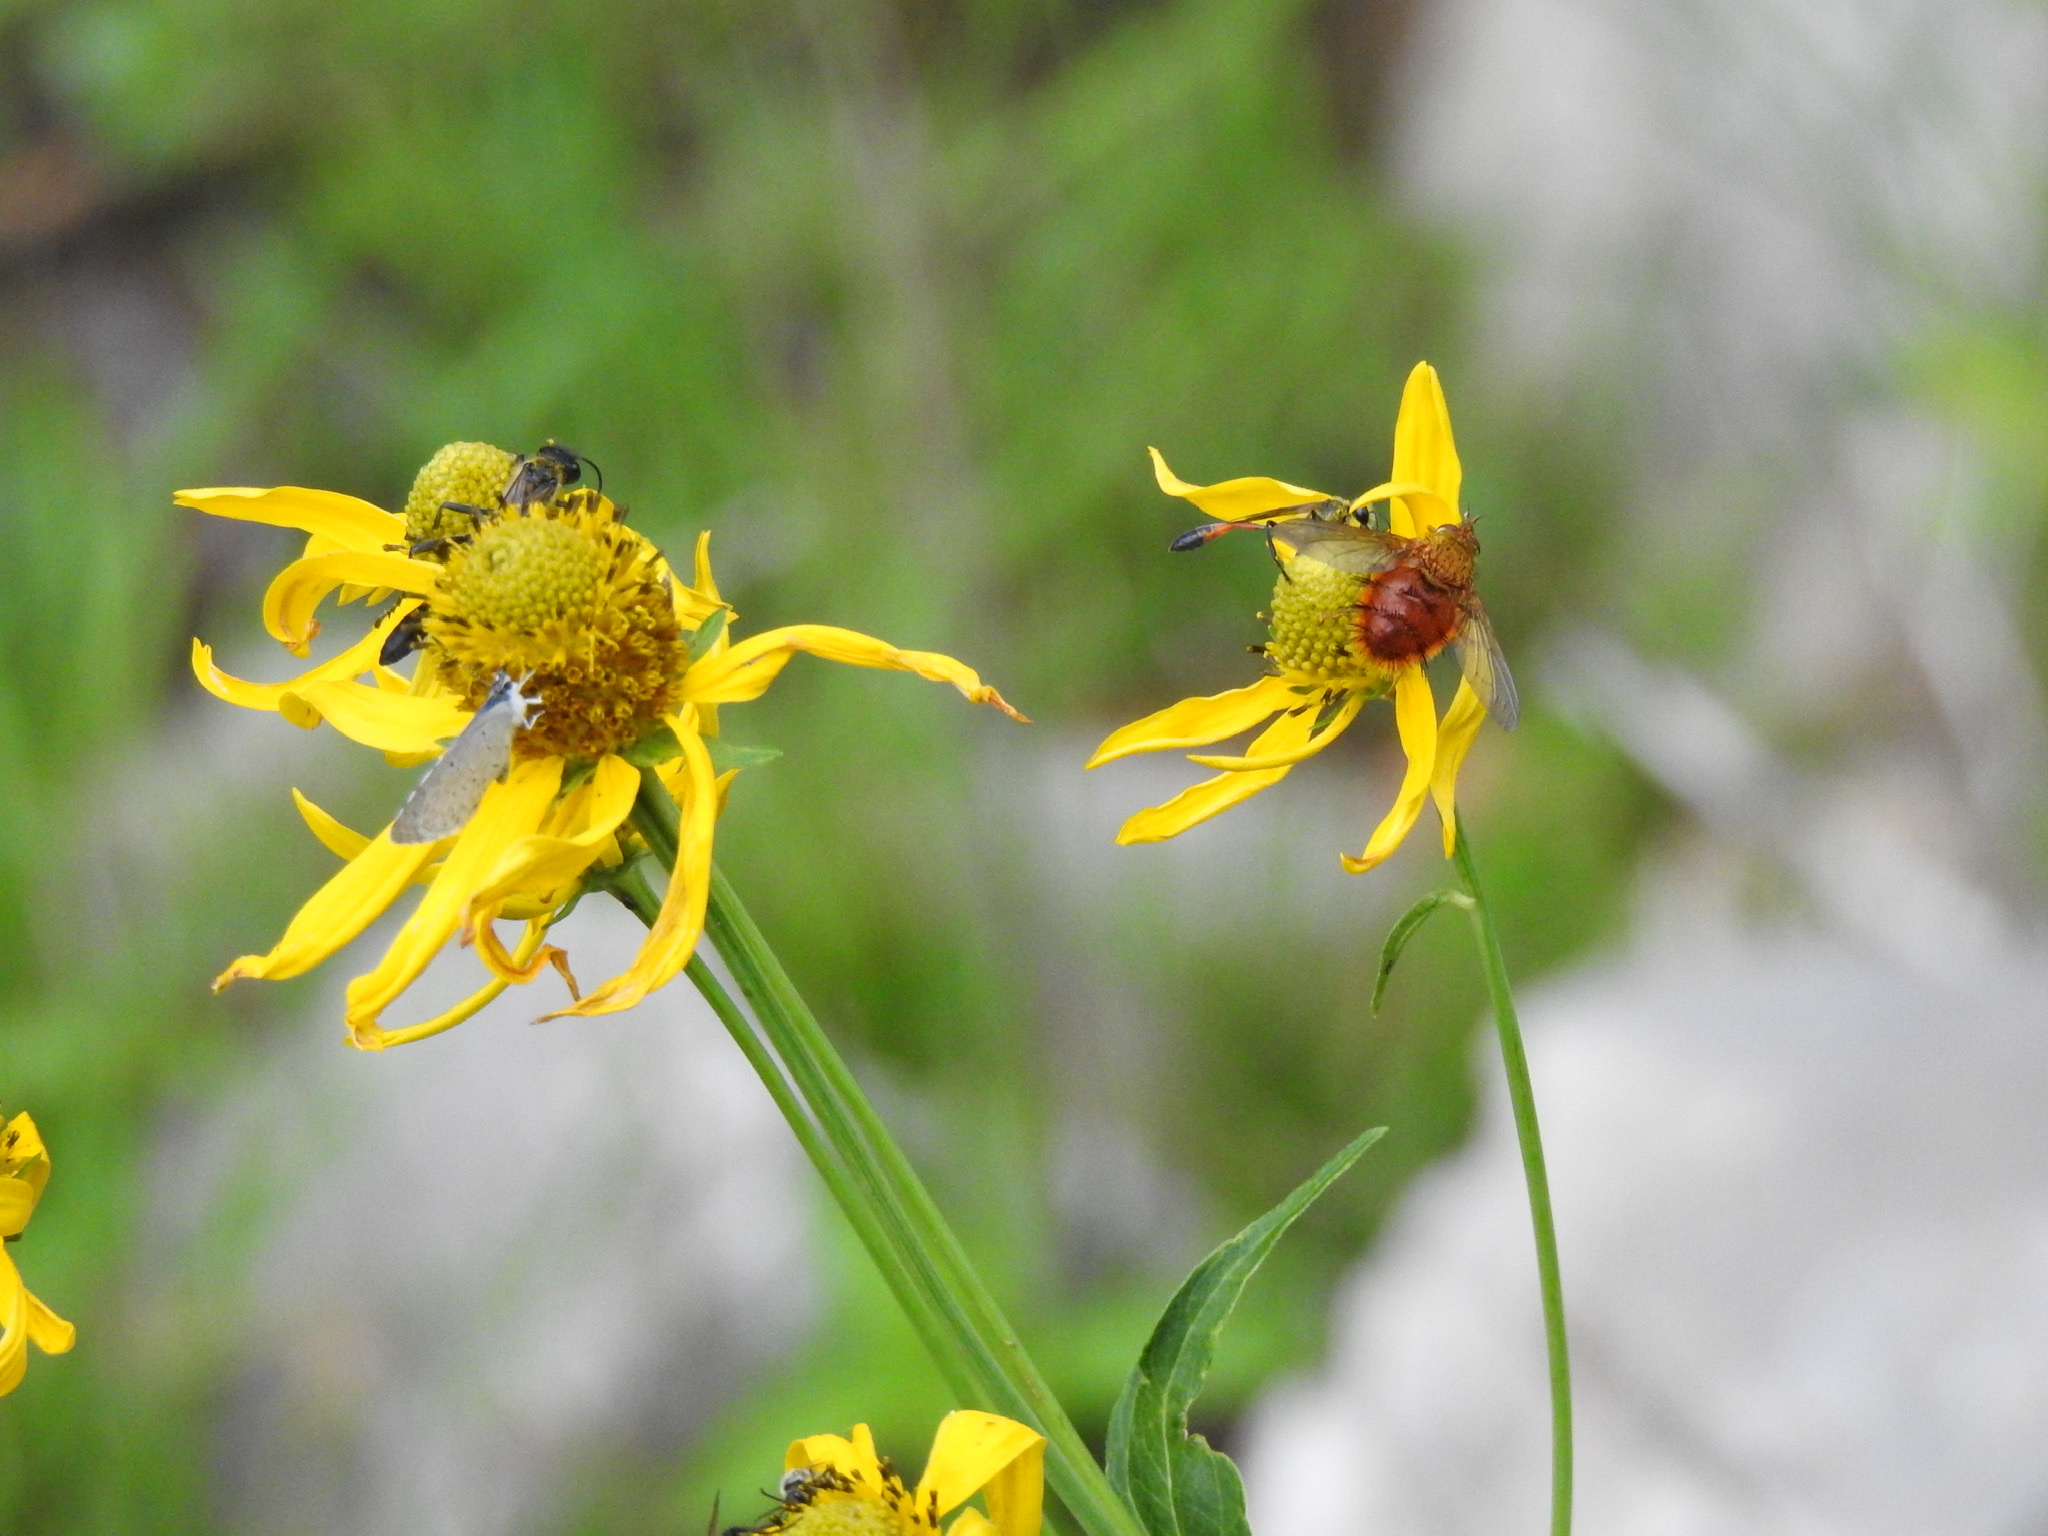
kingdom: Animalia
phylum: Arthropoda
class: Insecta
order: Diptera
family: Tachinidae
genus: Adejeania
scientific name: Adejeania vexatrix
